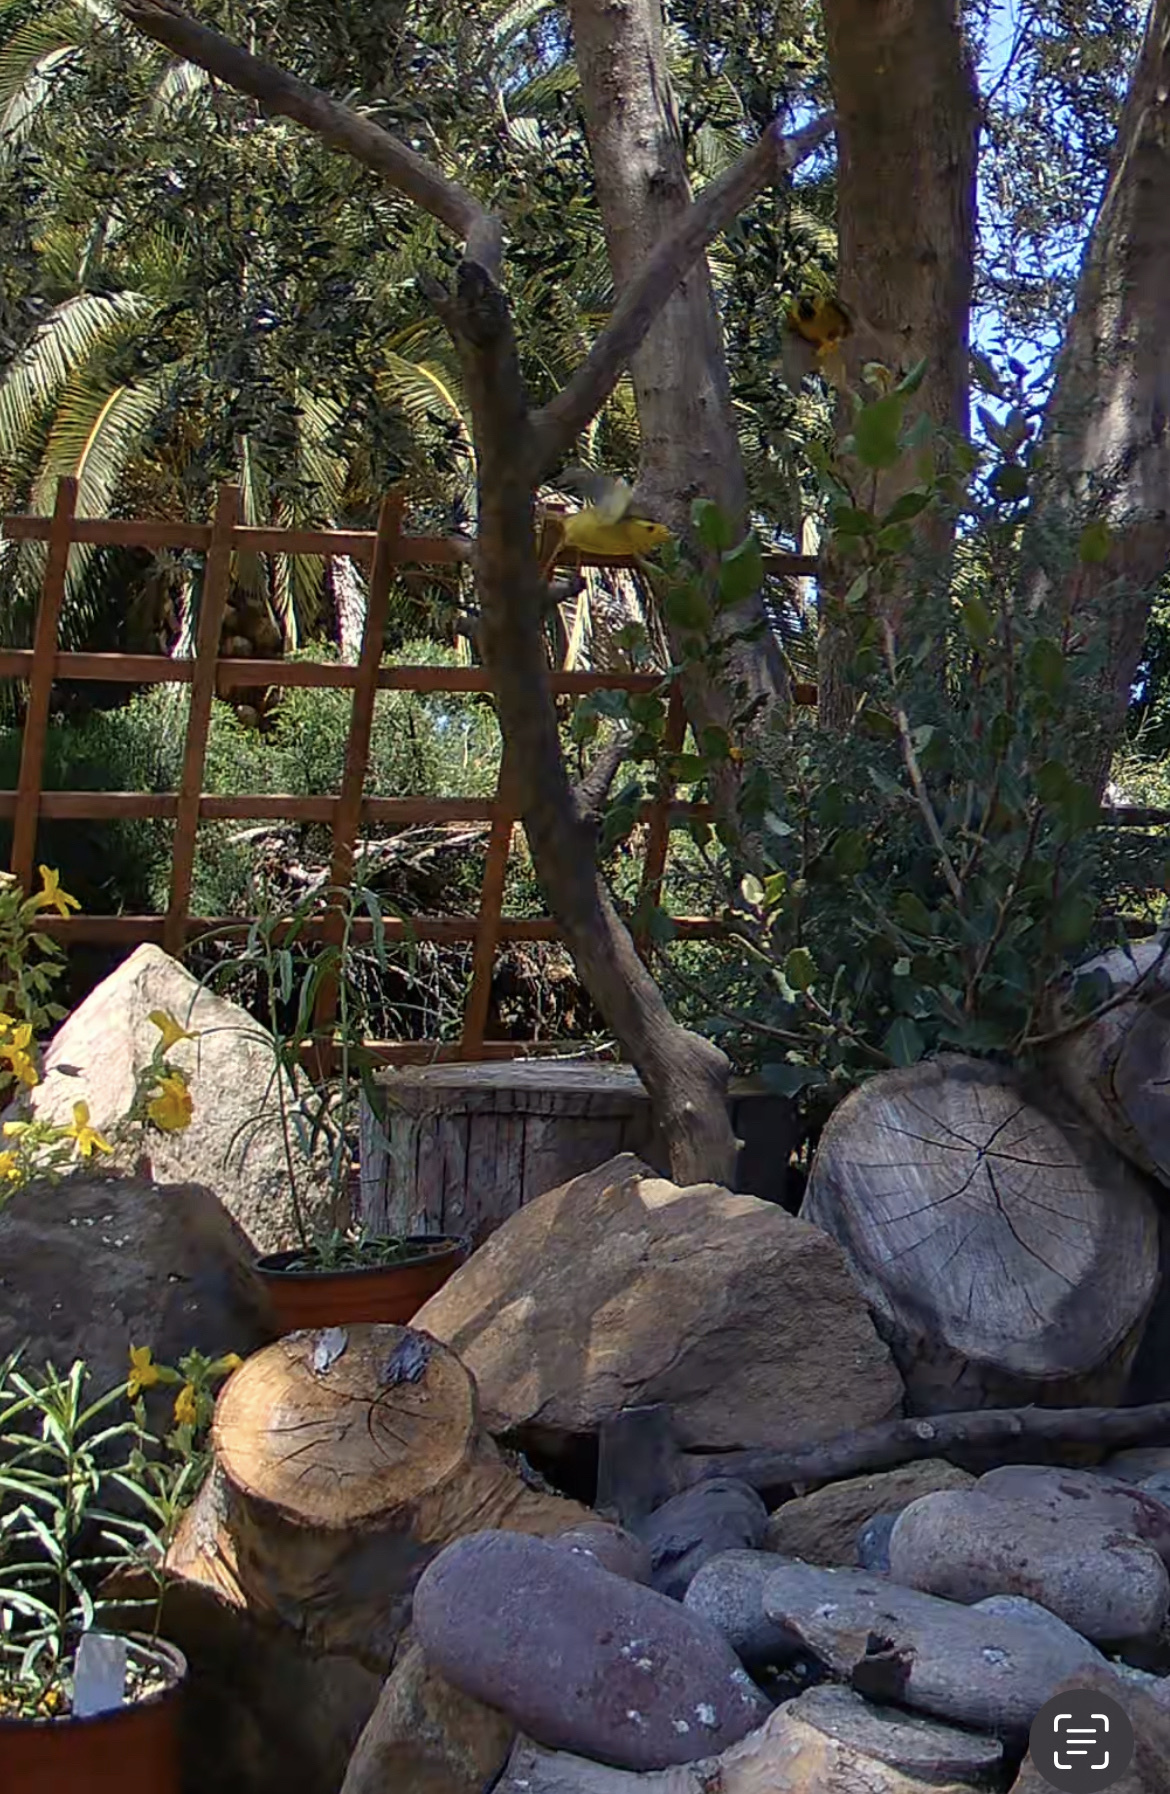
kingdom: Animalia
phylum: Chordata
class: Aves
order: Passeriformes
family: Parulidae
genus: Cardellina
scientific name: Cardellina pusilla
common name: Wilson's warbler
